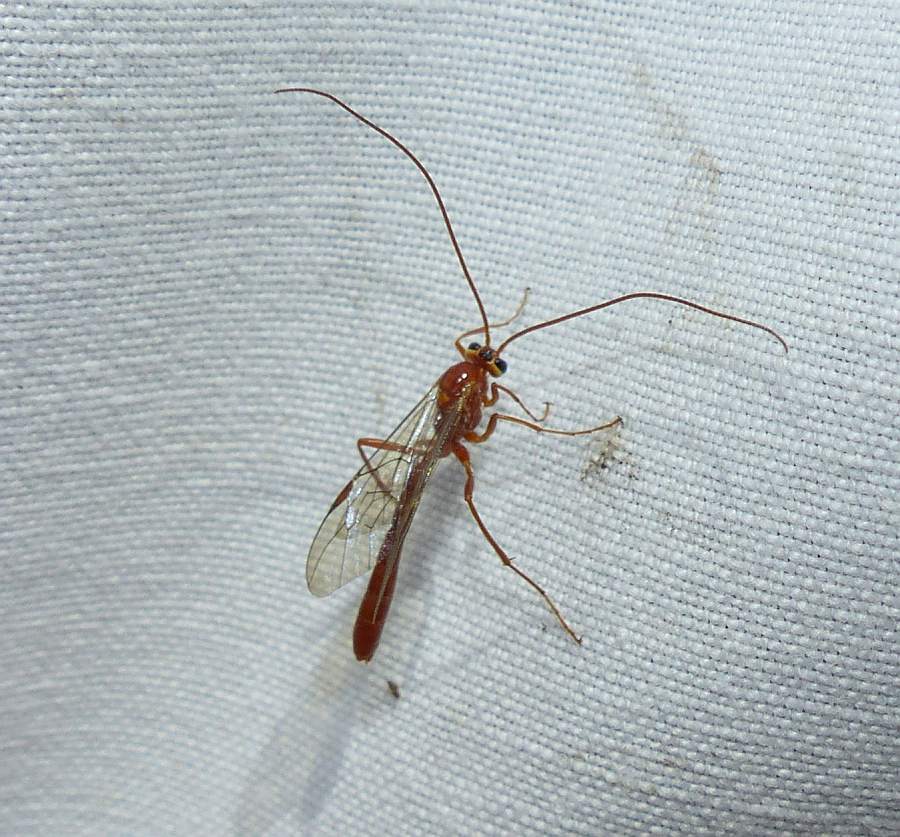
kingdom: Animalia
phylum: Arthropoda
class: Insecta
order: Hymenoptera
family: Ichneumonidae
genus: Ophion
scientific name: Ophion
